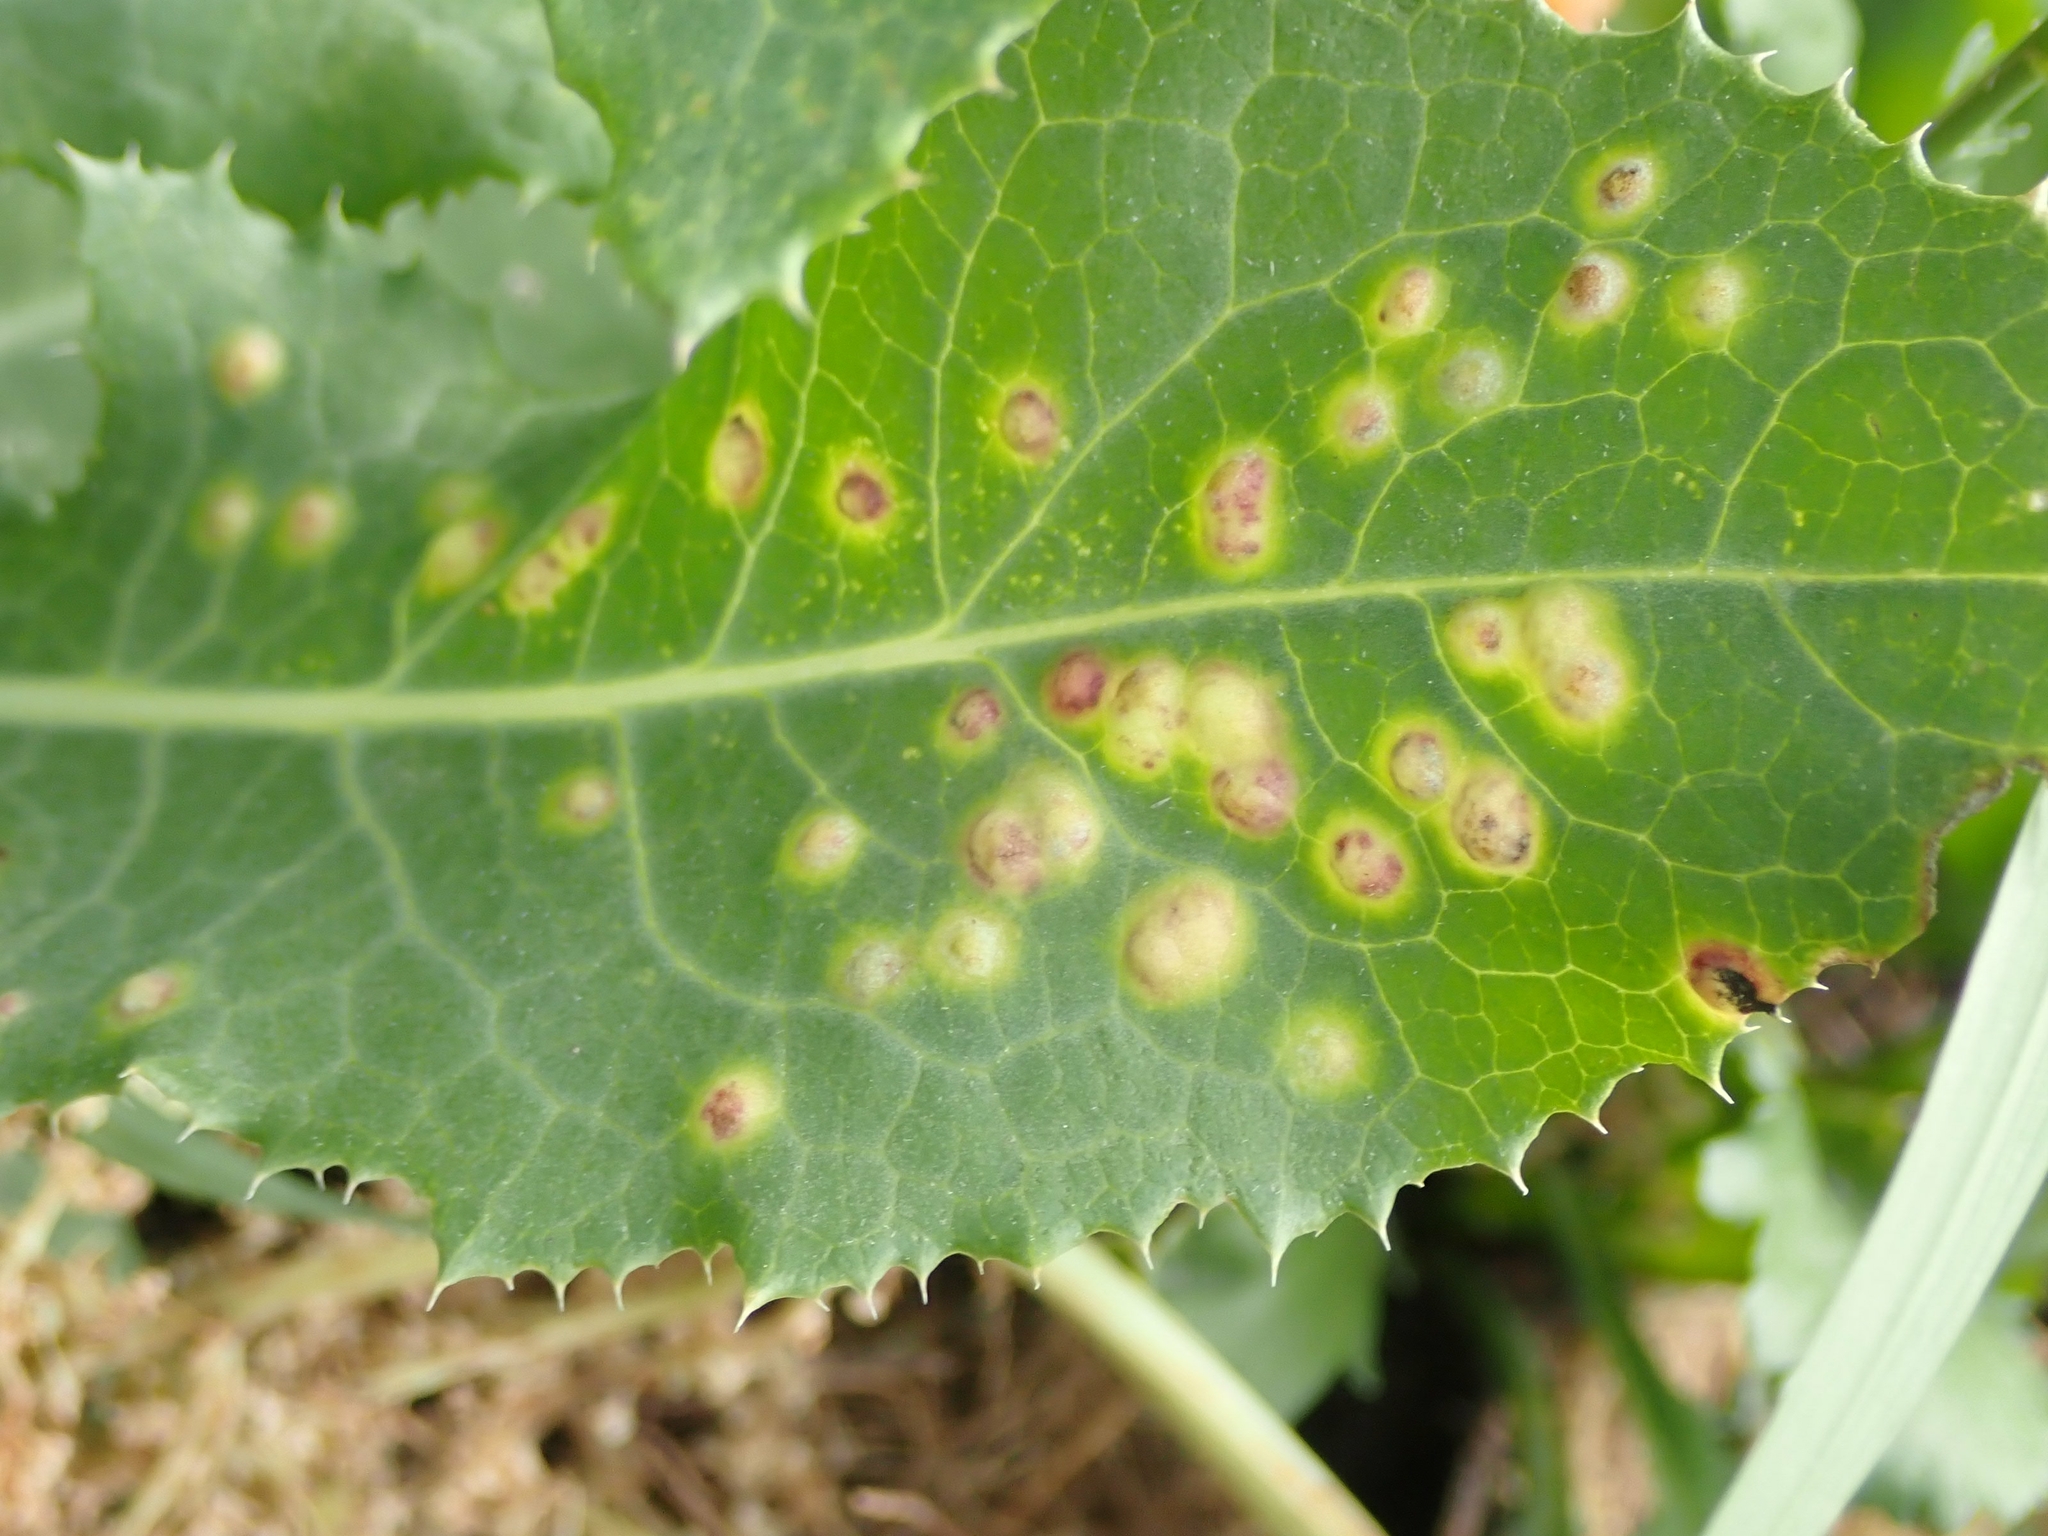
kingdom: Animalia
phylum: Arthropoda
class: Insecta
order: Diptera
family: Cecidomyiidae
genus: Cystiphora
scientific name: Cystiphora sonchi
